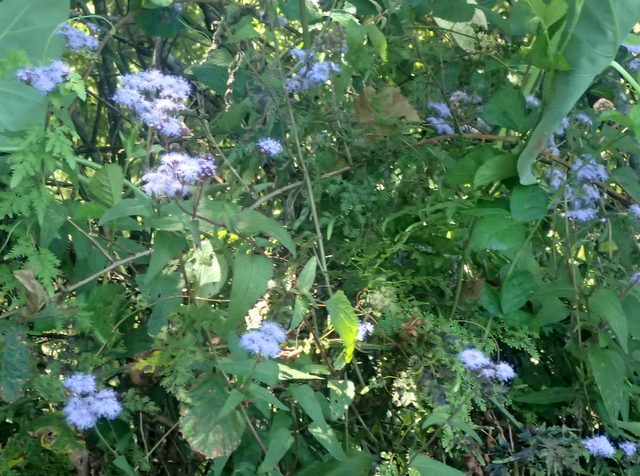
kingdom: Plantae
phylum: Tracheophyta
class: Magnoliopsida
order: Asterales
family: Asteraceae
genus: Conoclinium
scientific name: Conoclinium coelestinum
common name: Blue mistflower
